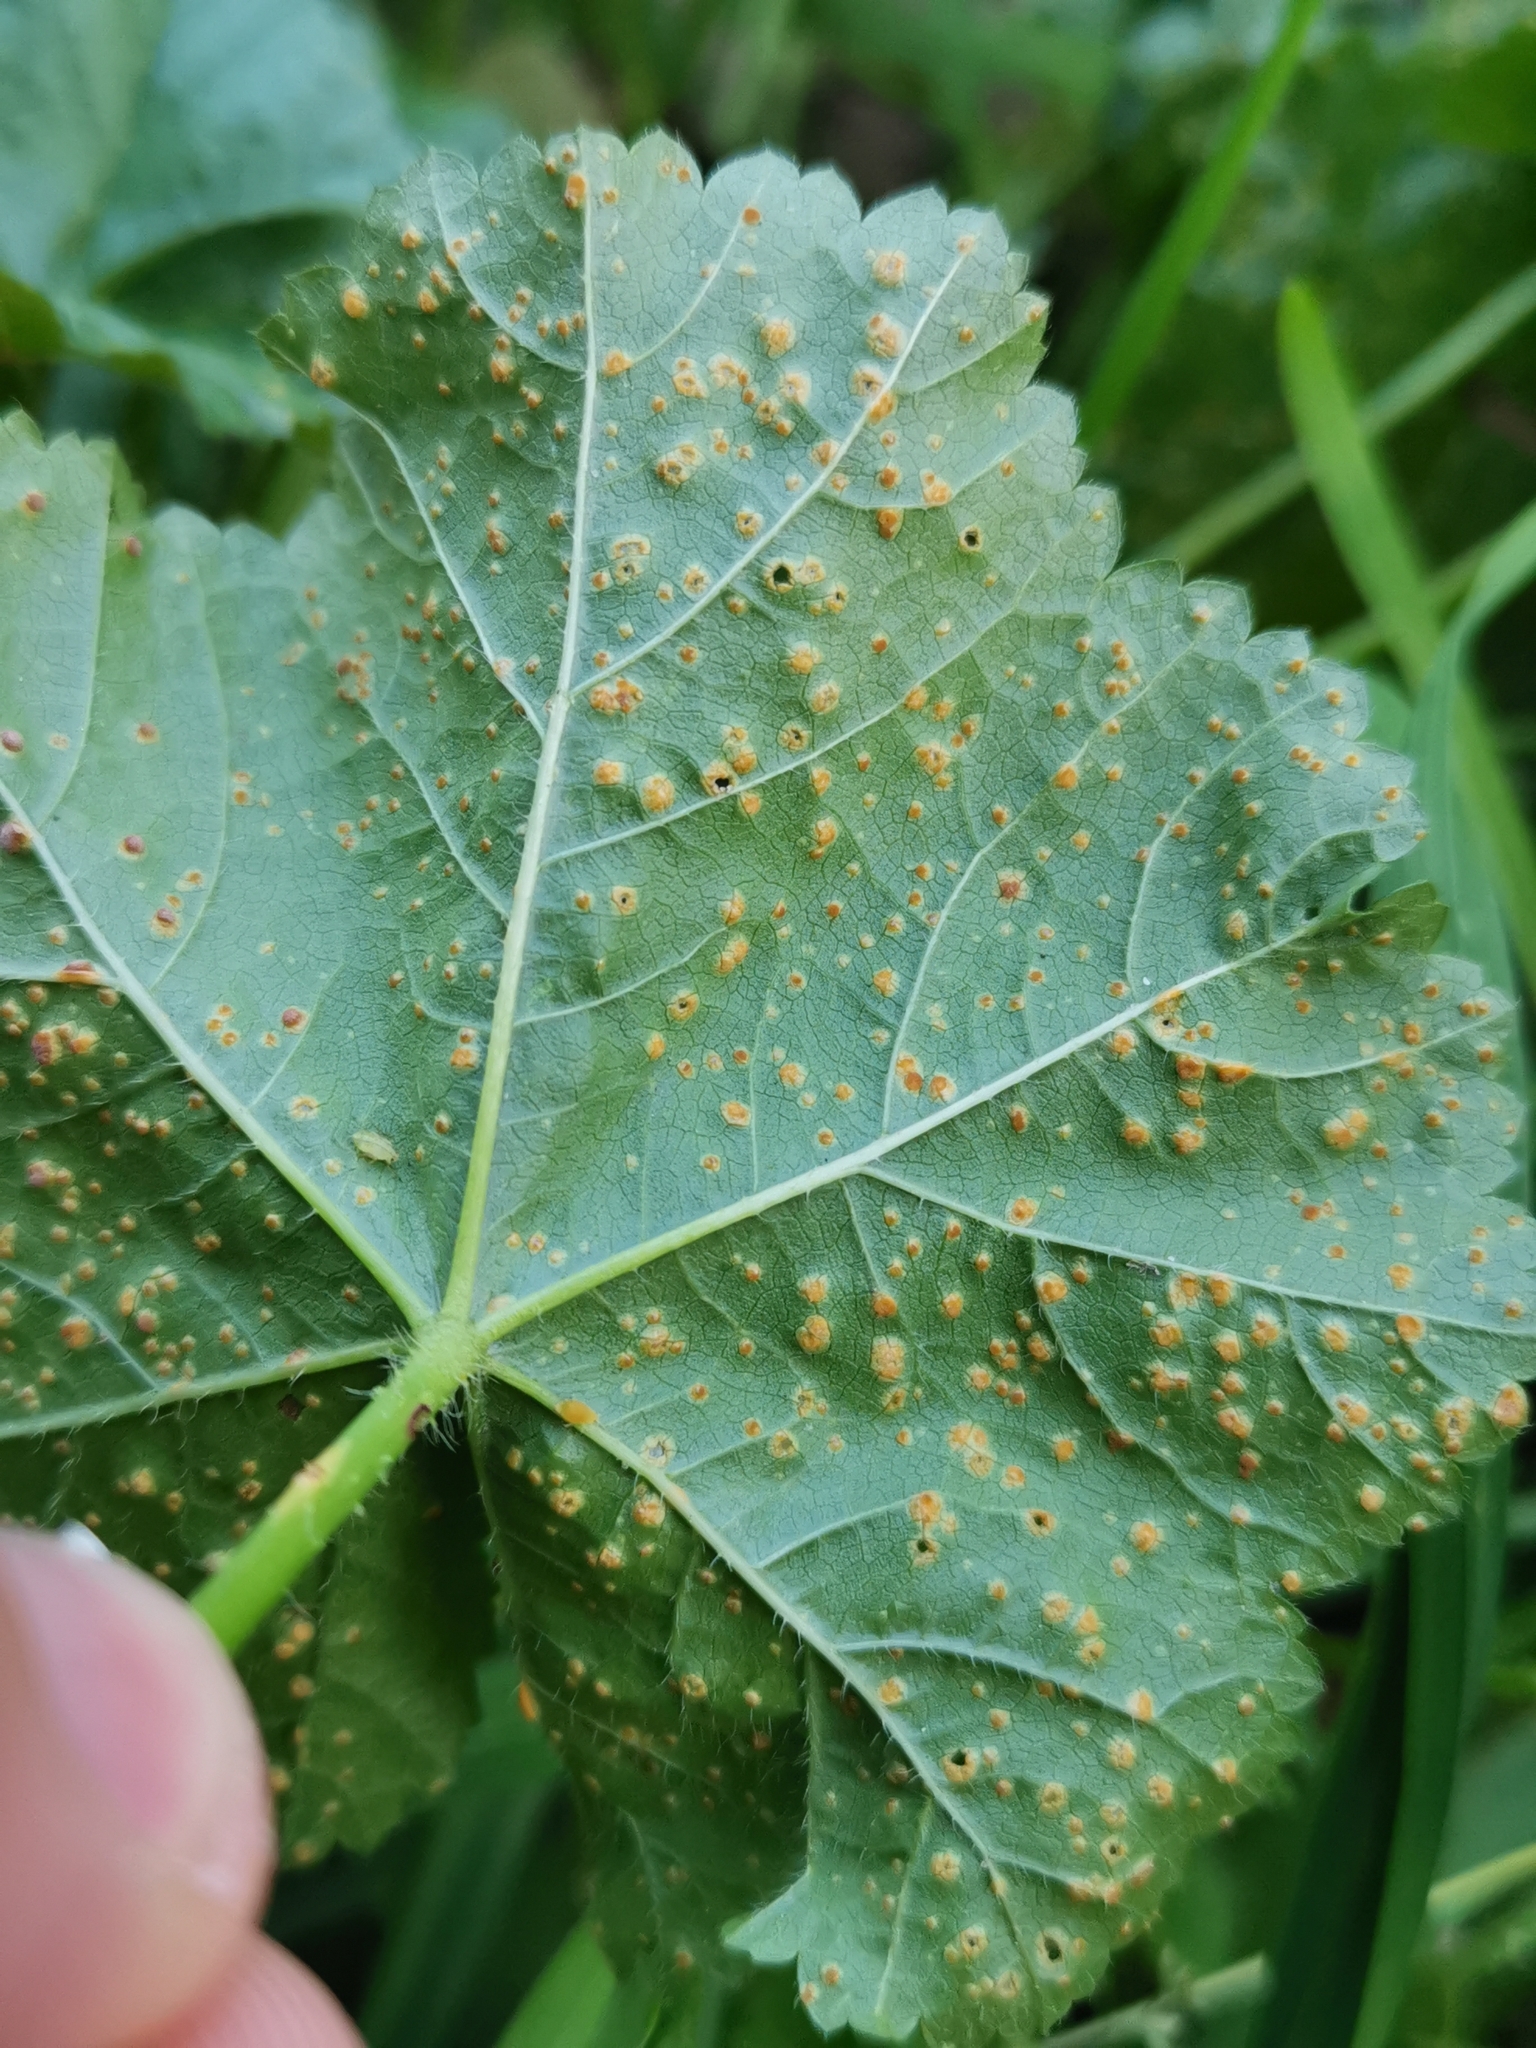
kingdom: Fungi
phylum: Basidiomycota
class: Pucciniomycetes
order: Pucciniales
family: Pucciniaceae
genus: Puccinia
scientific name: Puccinia malvacearum
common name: Hollyhock rust
